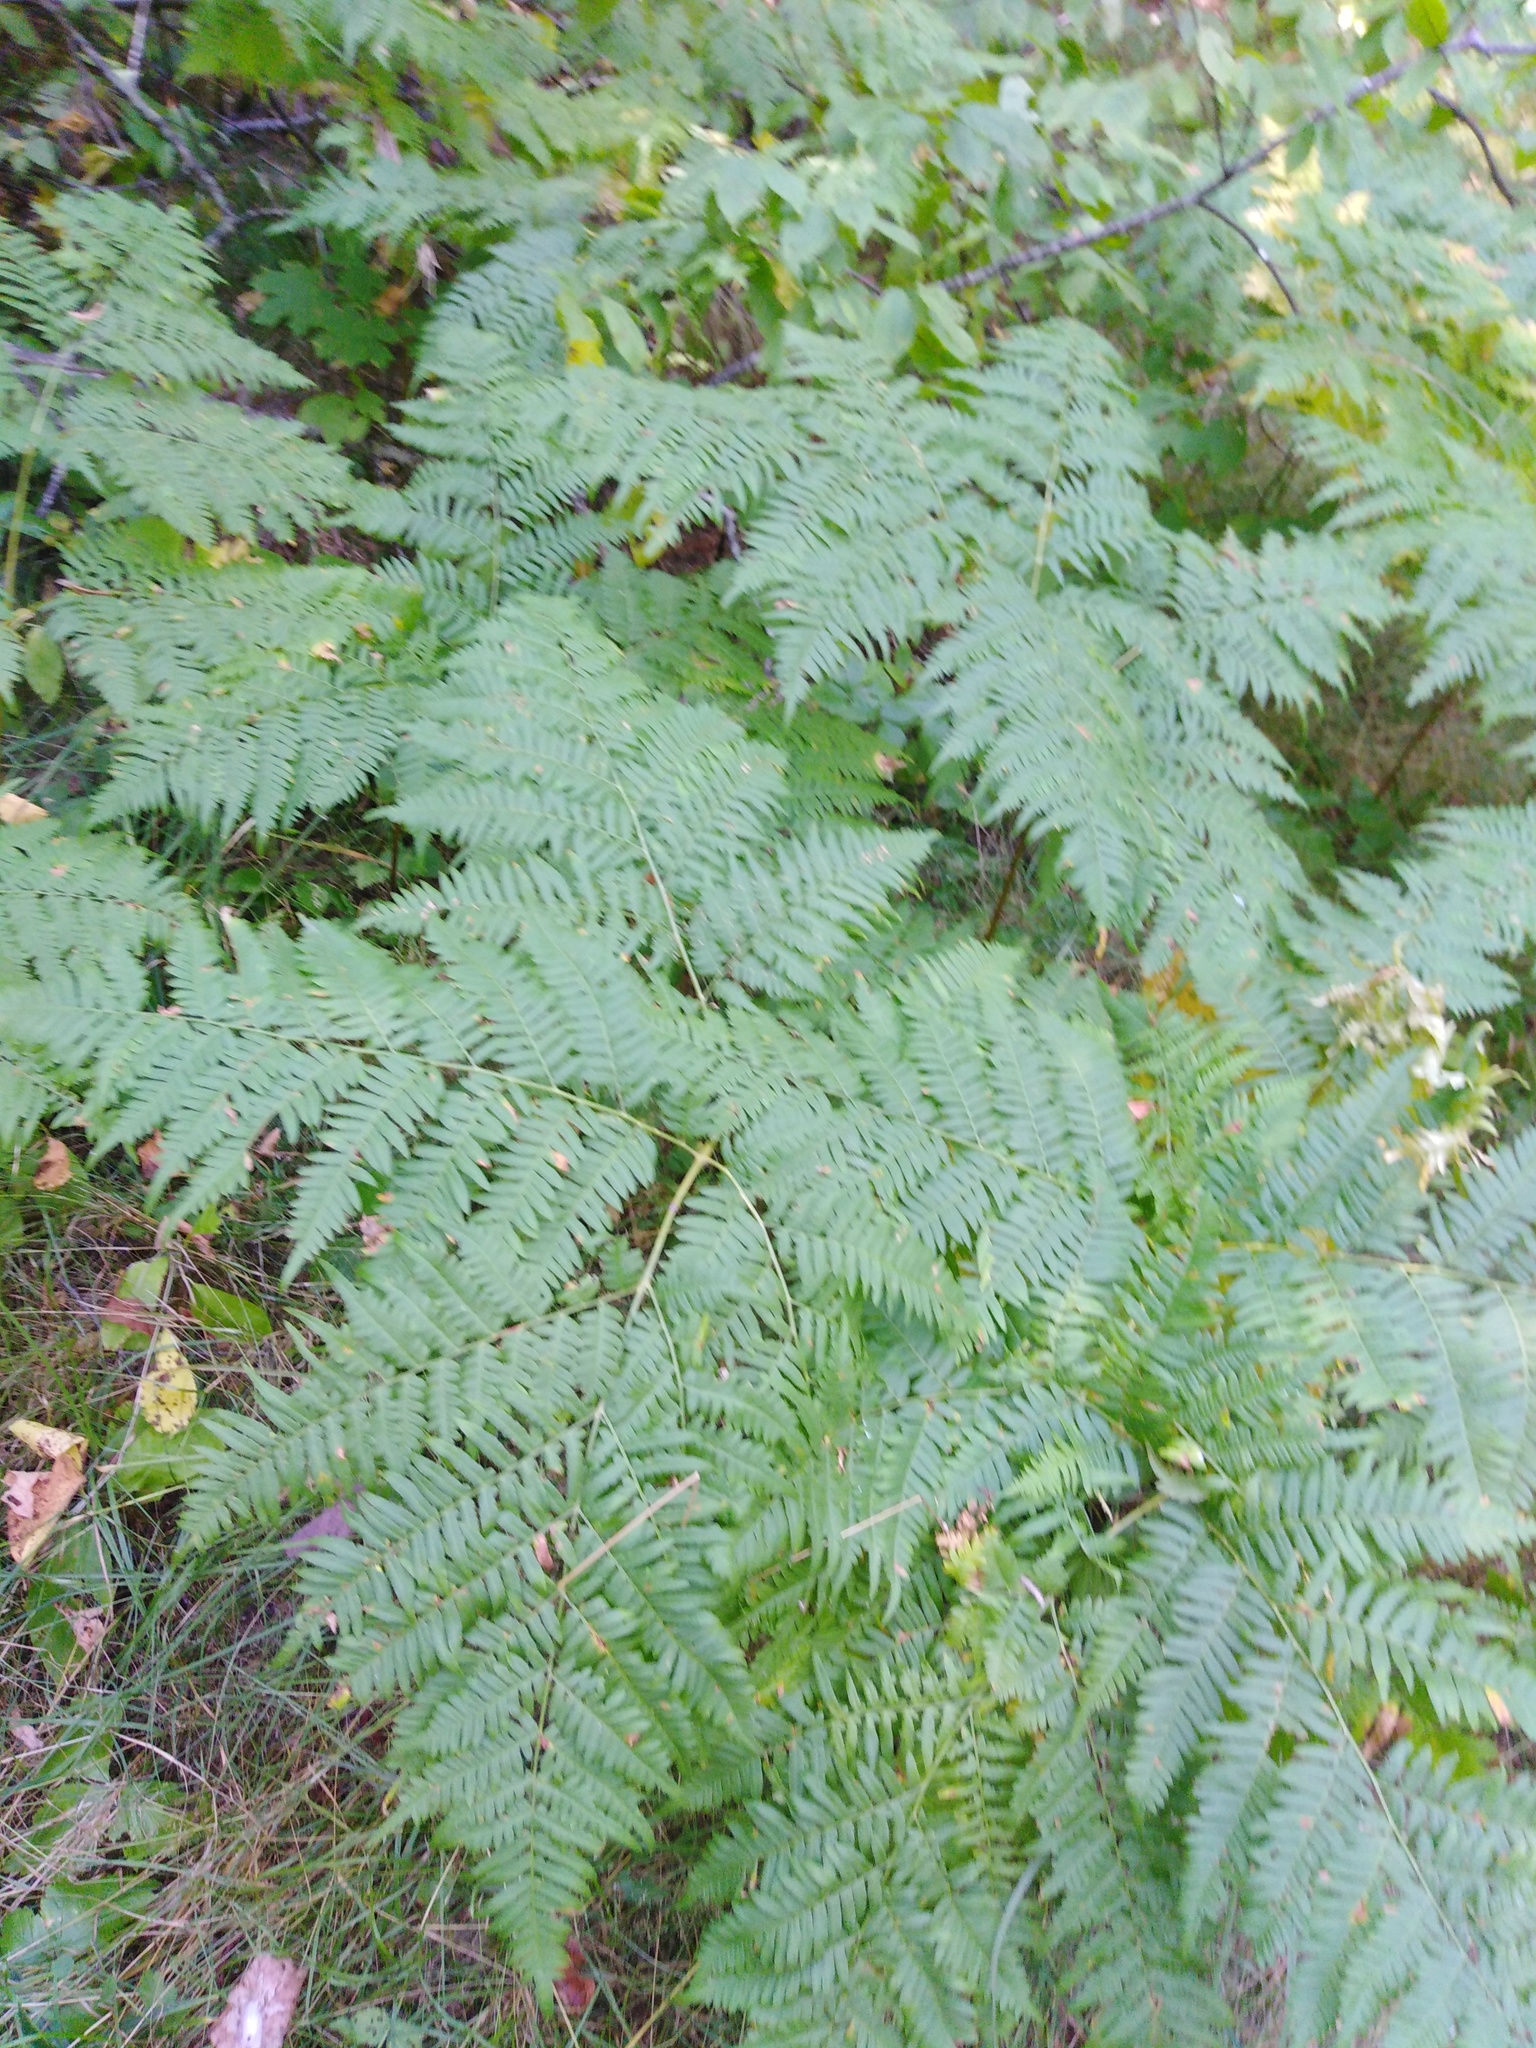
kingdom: Plantae
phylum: Tracheophyta
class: Polypodiopsida
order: Polypodiales
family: Dennstaedtiaceae
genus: Pteridium
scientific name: Pteridium aquilinum
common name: Bracken
